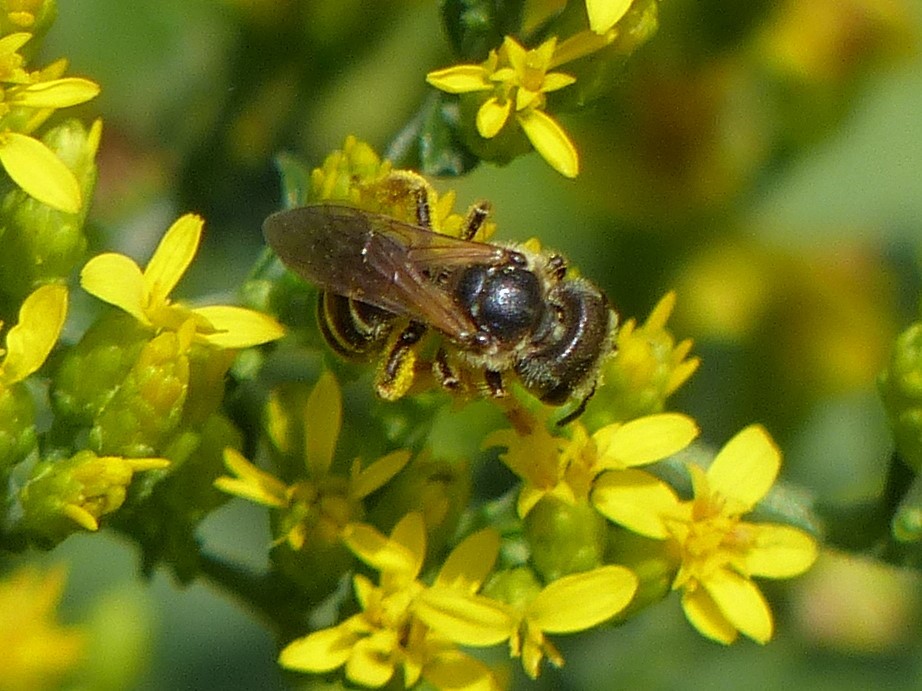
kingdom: Animalia
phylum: Arthropoda
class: Insecta
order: Hymenoptera
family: Halictidae
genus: Halictus
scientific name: Halictus ligatus
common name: Ligated furrow bee
